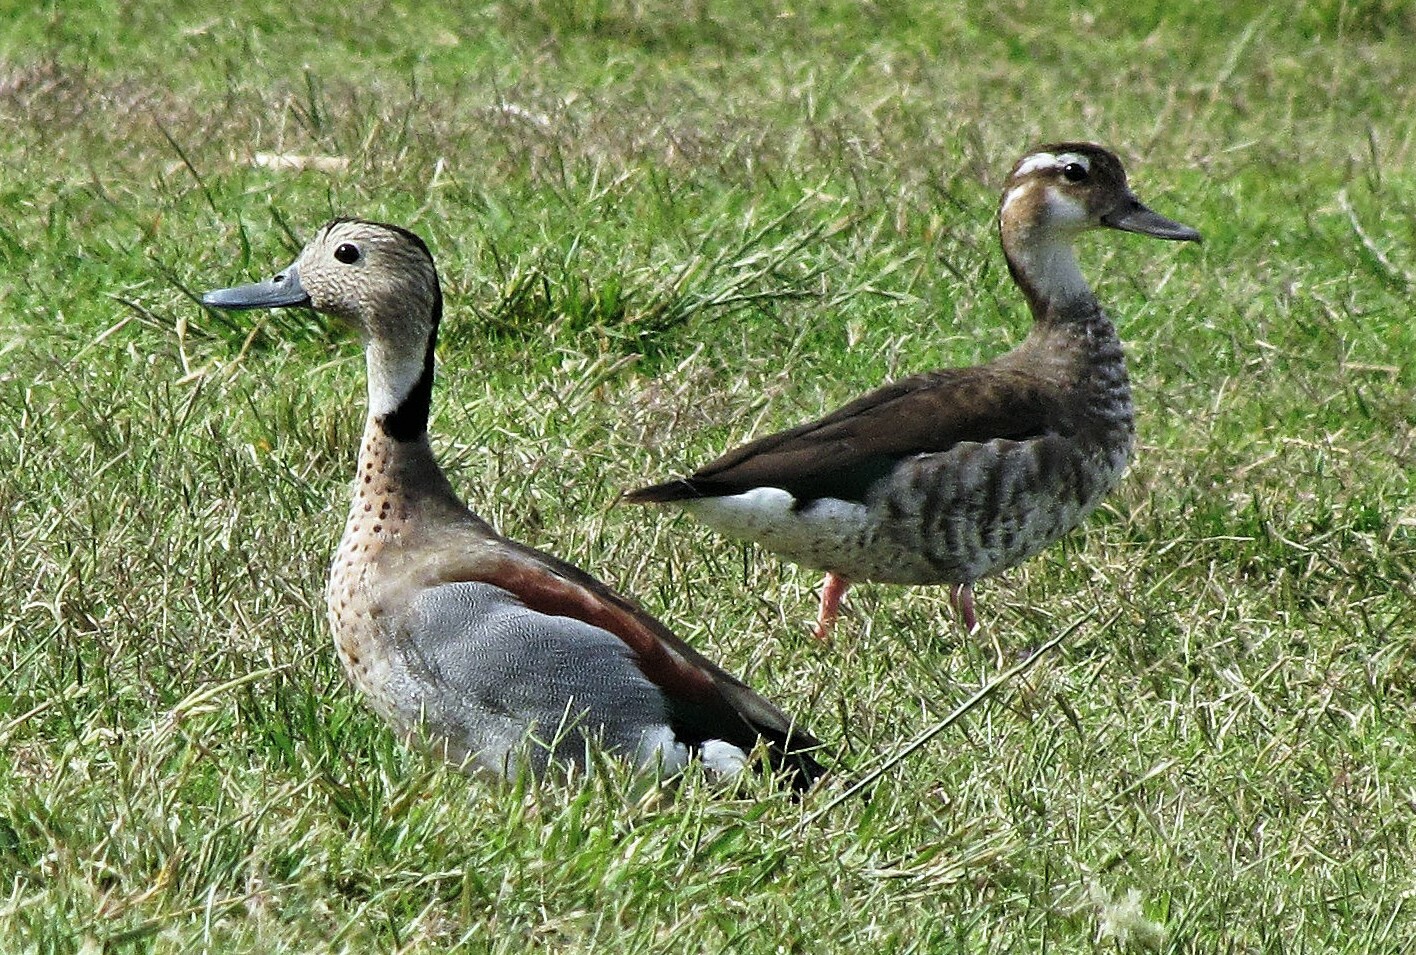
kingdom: Animalia
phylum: Chordata
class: Aves
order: Anseriformes
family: Anatidae
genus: Callonetta
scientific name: Callonetta leucophrys
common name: Ringed teal
